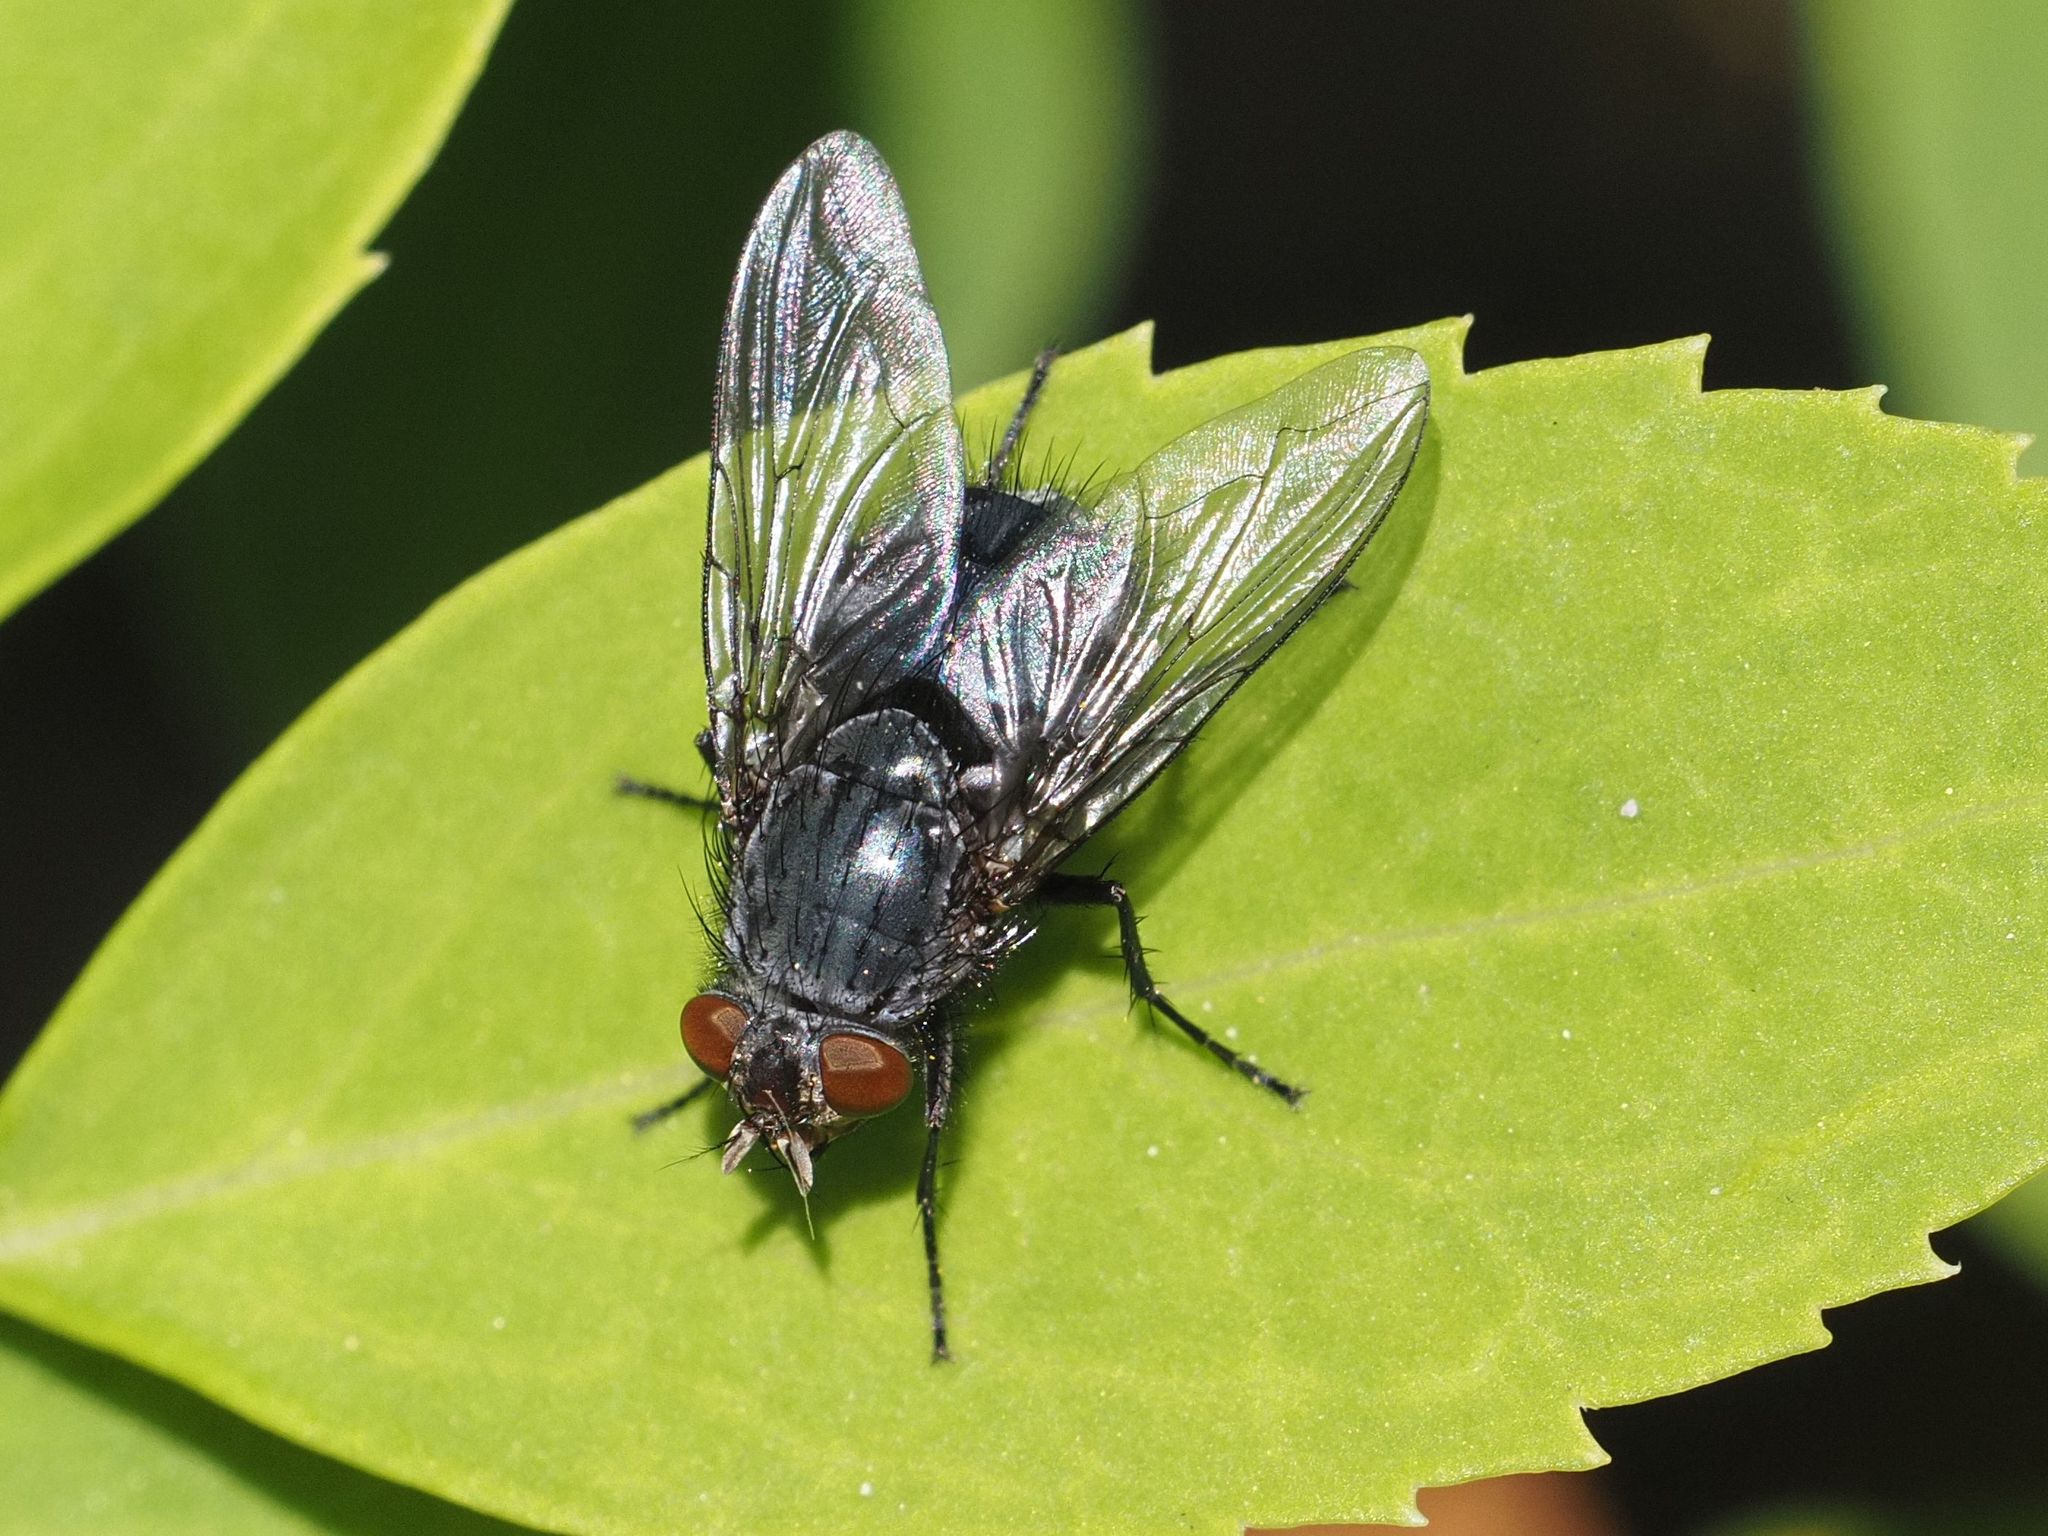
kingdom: Animalia
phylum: Arthropoda
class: Insecta
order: Diptera
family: Calliphoridae
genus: Calliphora
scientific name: Calliphora vicina
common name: Common blow flie
